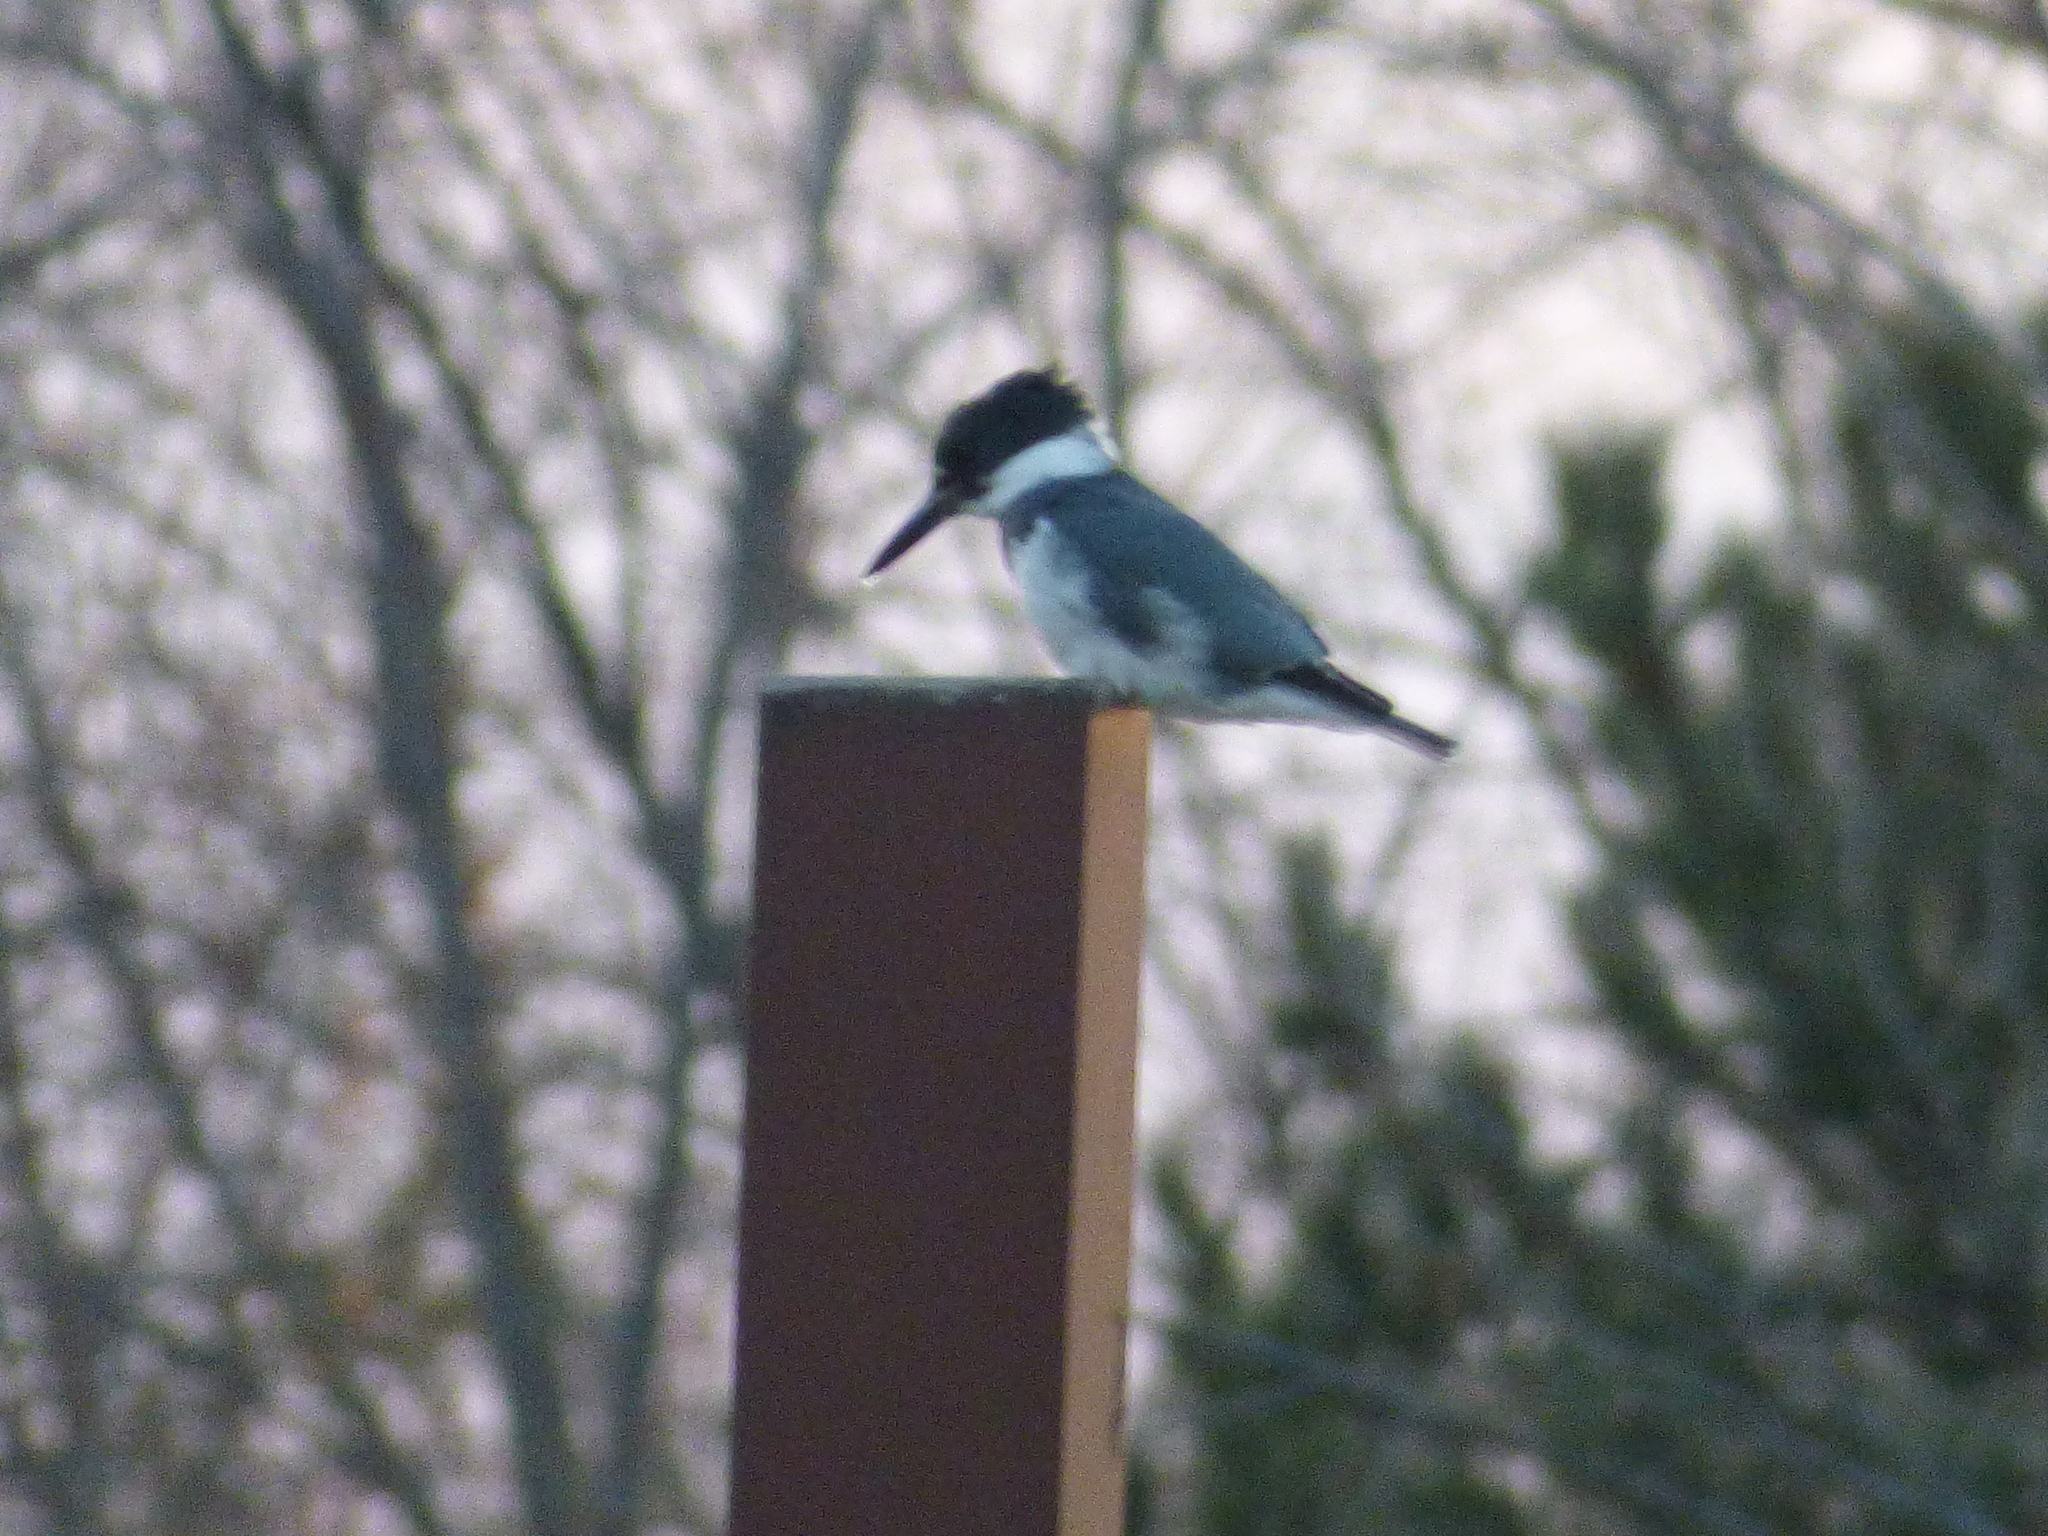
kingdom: Animalia
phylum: Chordata
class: Aves
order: Coraciiformes
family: Alcedinidae
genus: Megaceryle
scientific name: Megaceryle alcyon
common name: Belted kingfisher
